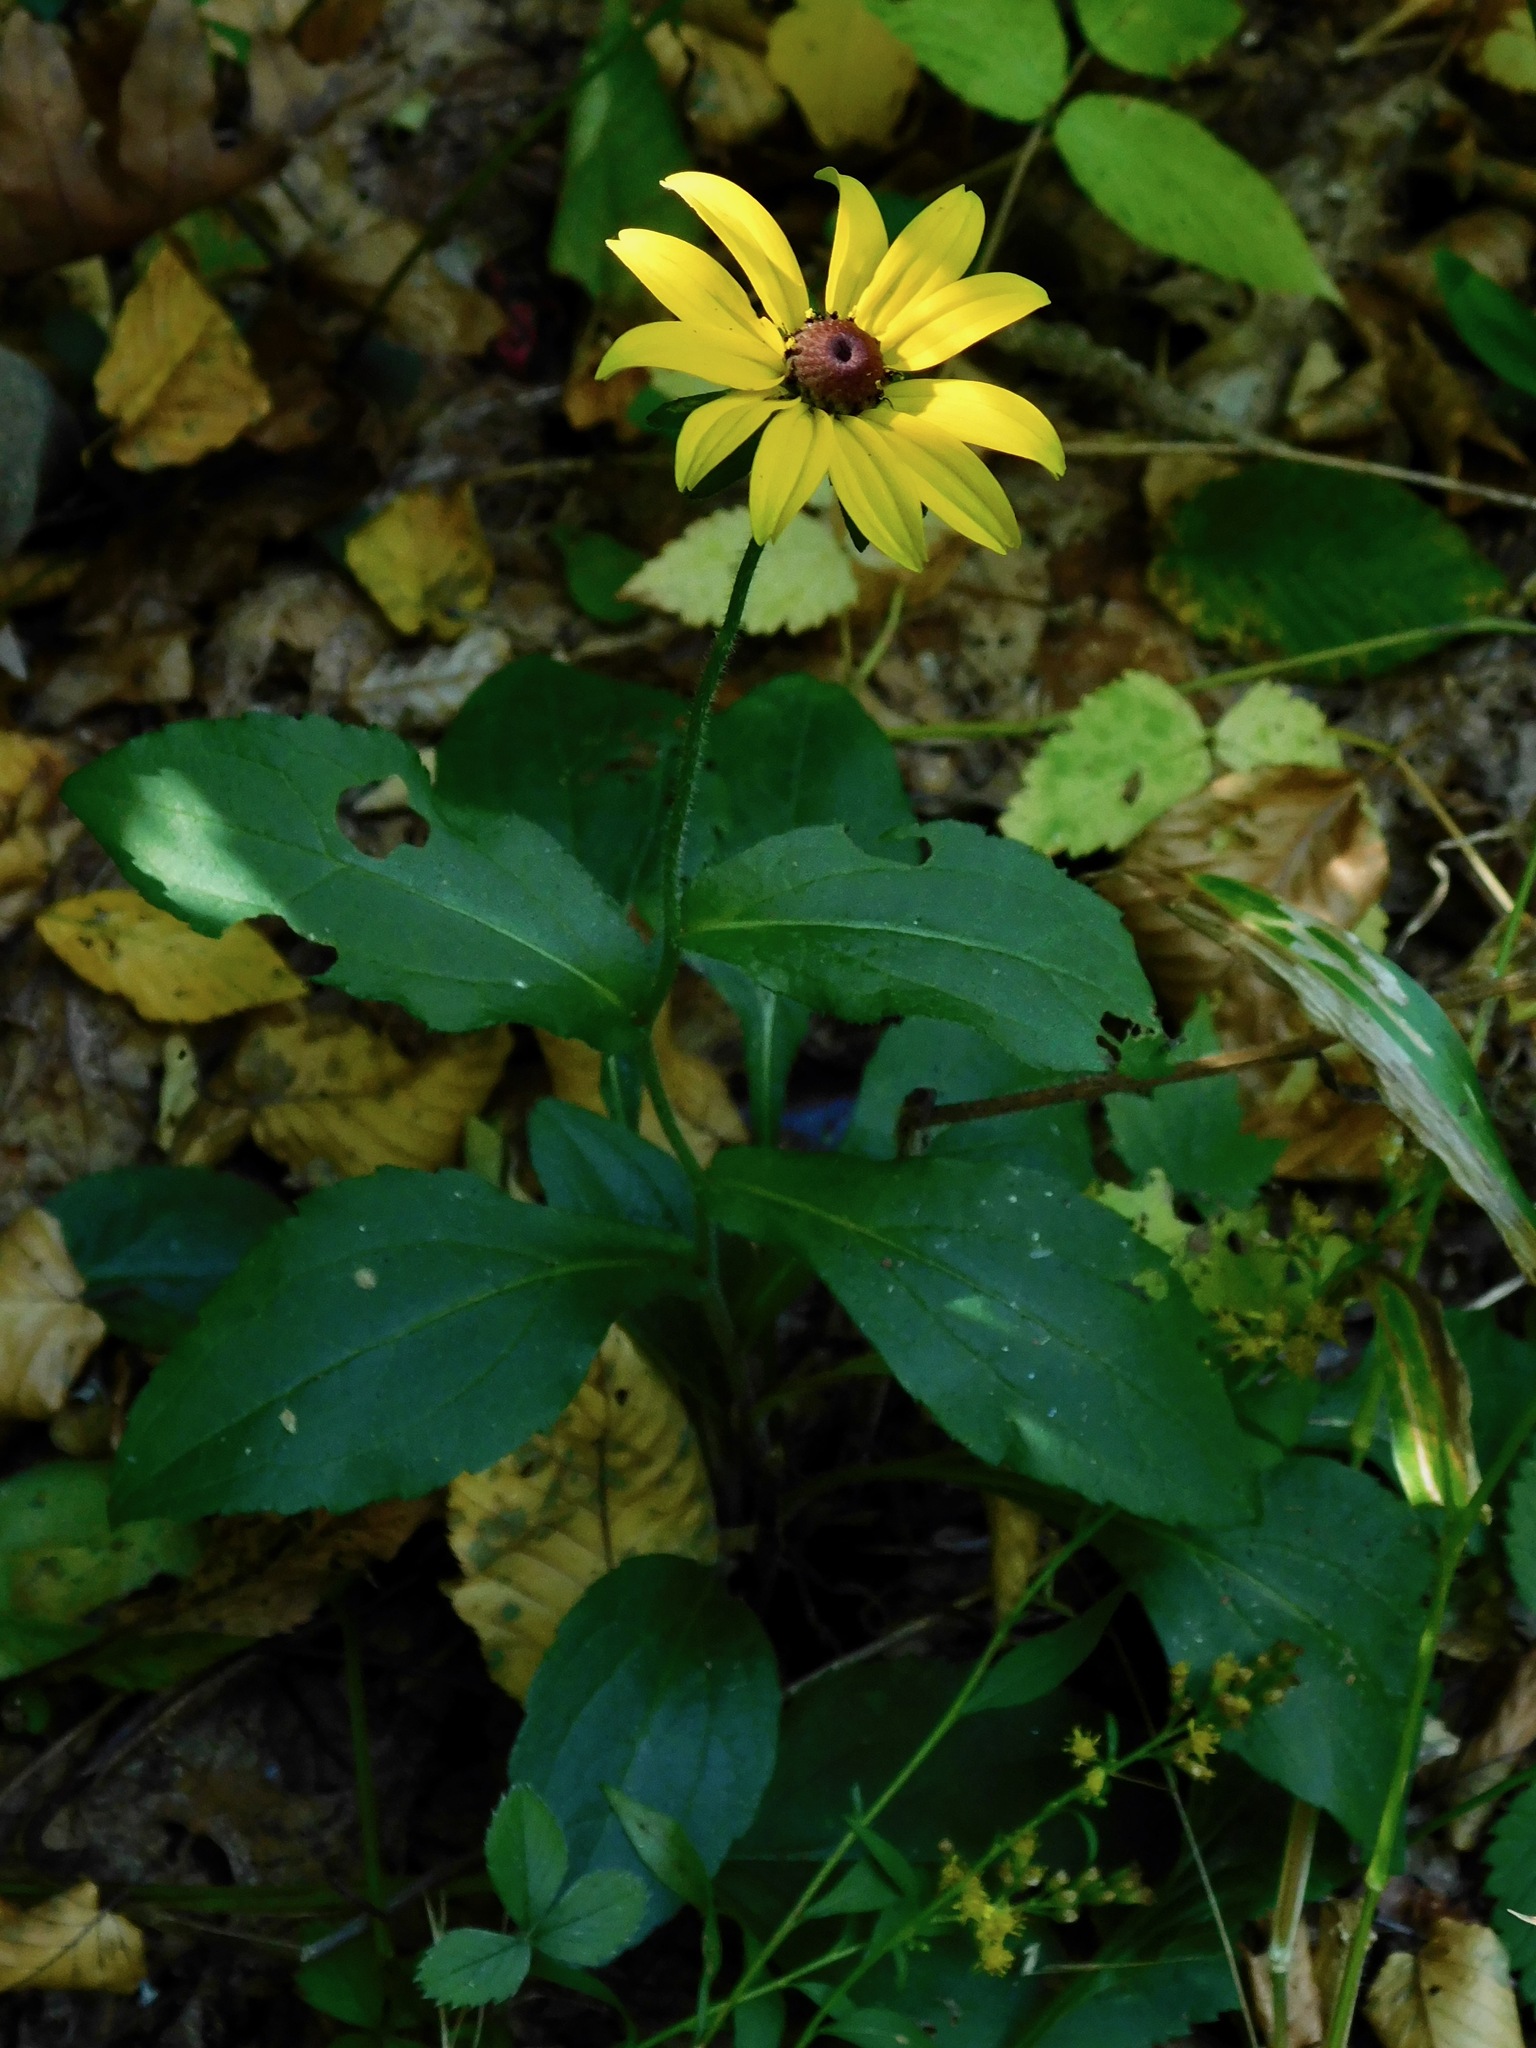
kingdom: Plantae
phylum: Tracheophyta
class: Magnoliopsida
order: Asterales
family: Asteraceae
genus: Rudbeckia
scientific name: Rudbeckia hirta
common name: Black-eyed-susan
